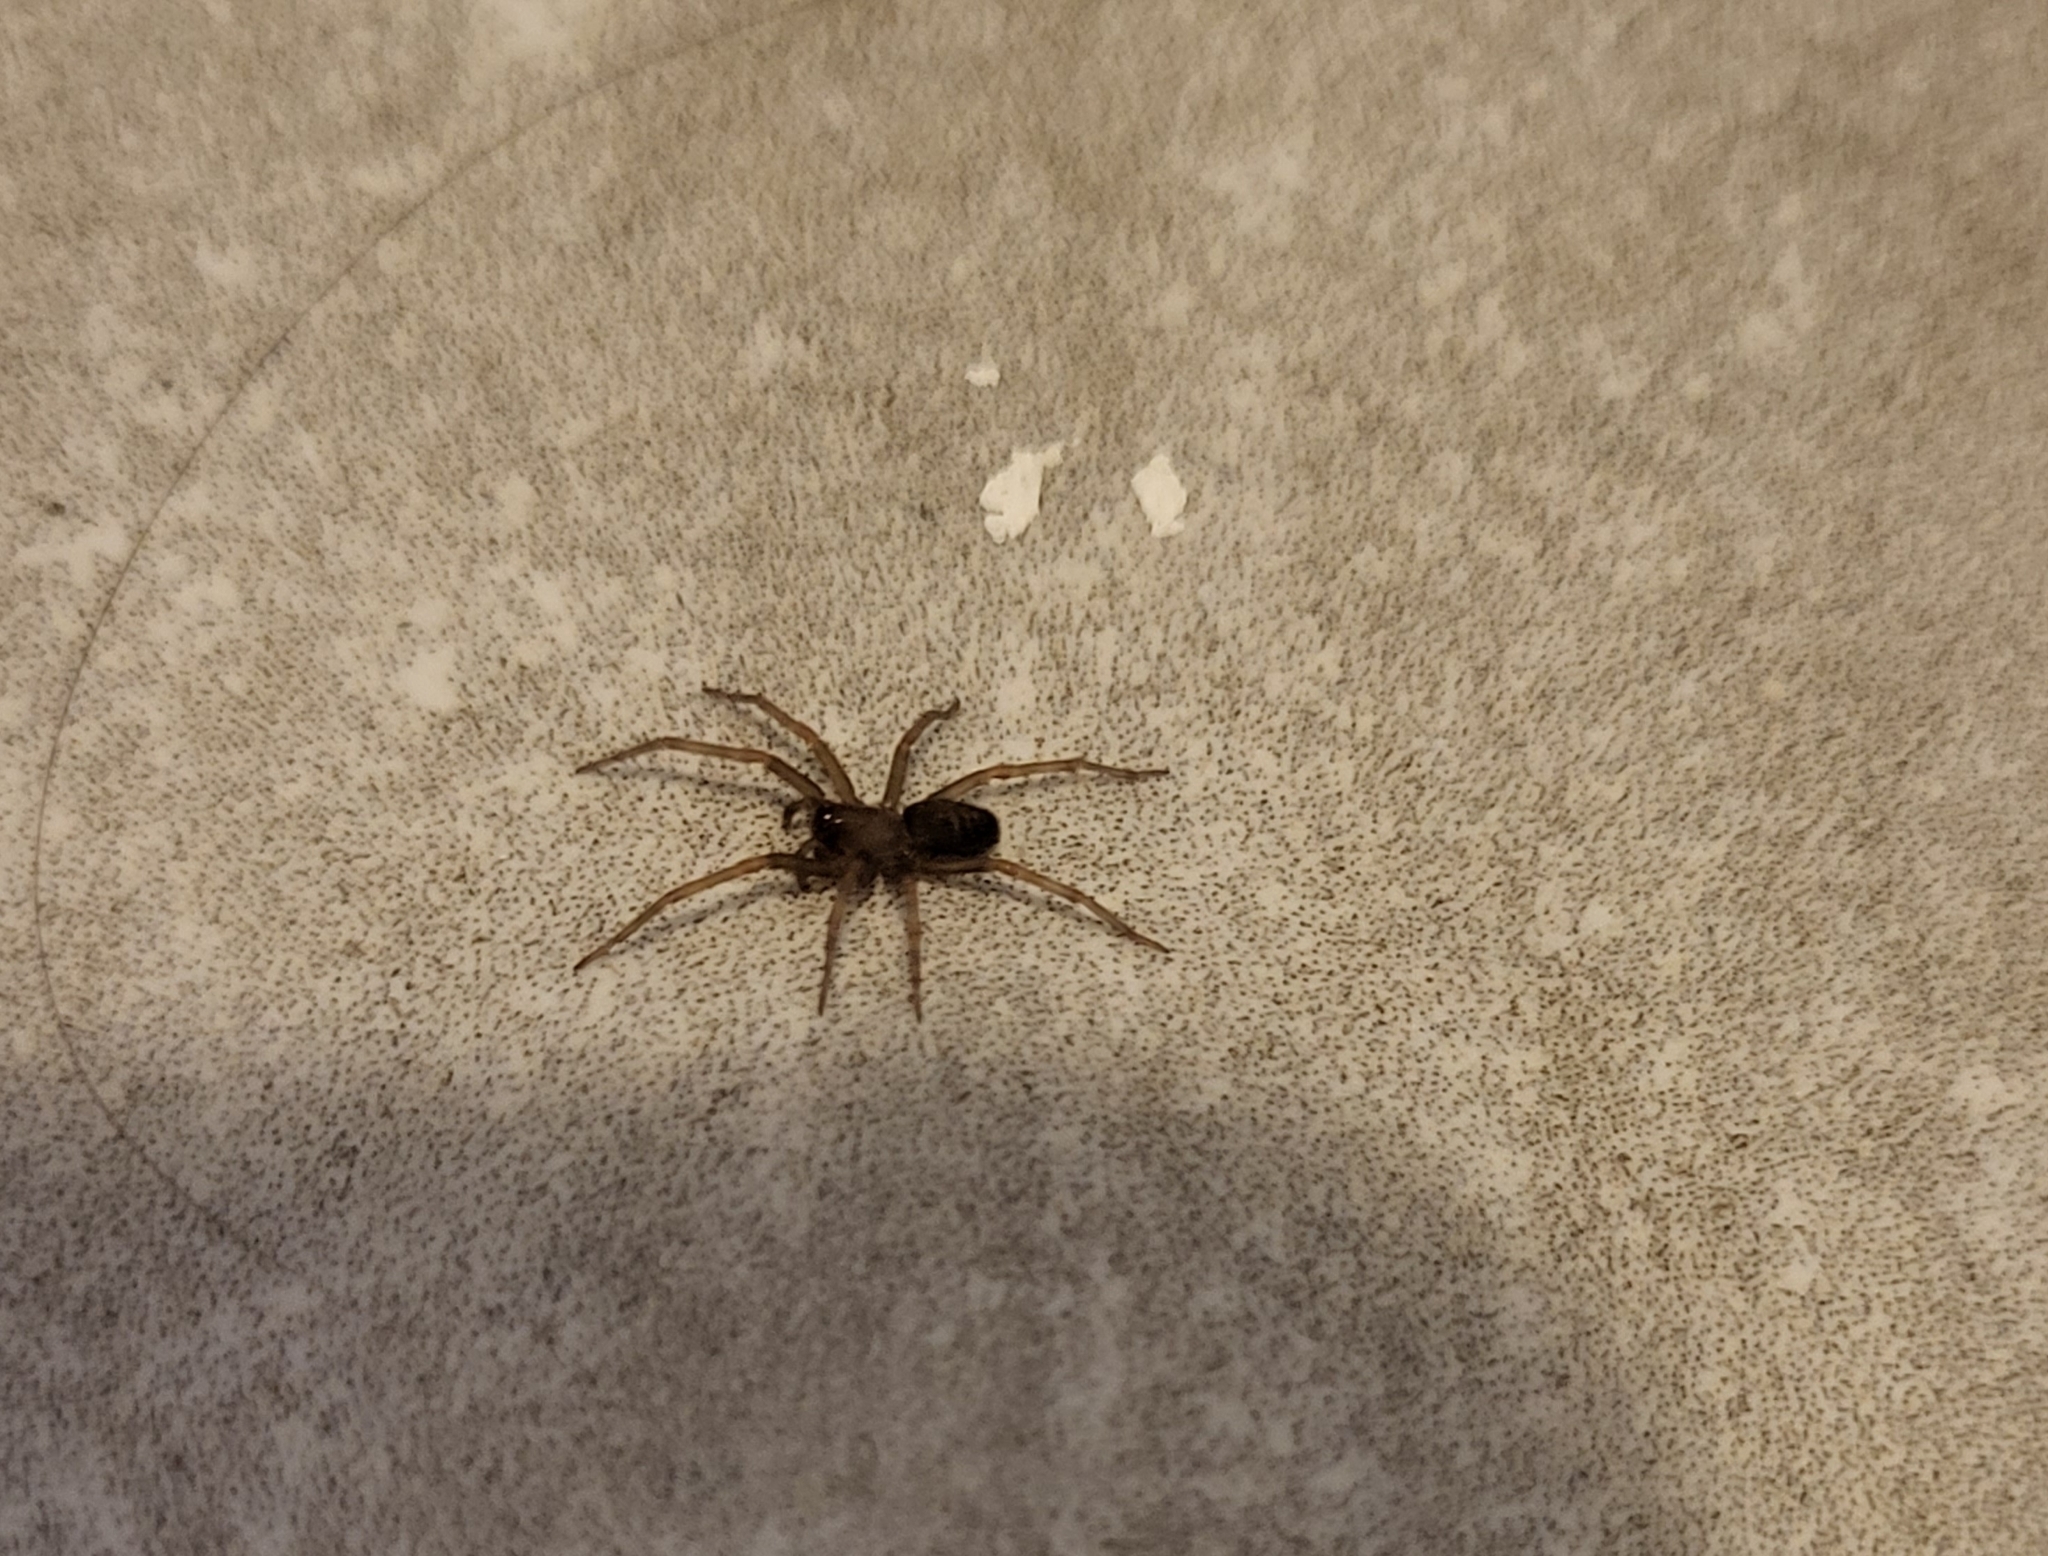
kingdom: Animalia
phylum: Arthropoda
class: Arachnida
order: Araneae
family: Desidae
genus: Metaltella
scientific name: Metaltella simoni
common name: Cribellate spider
